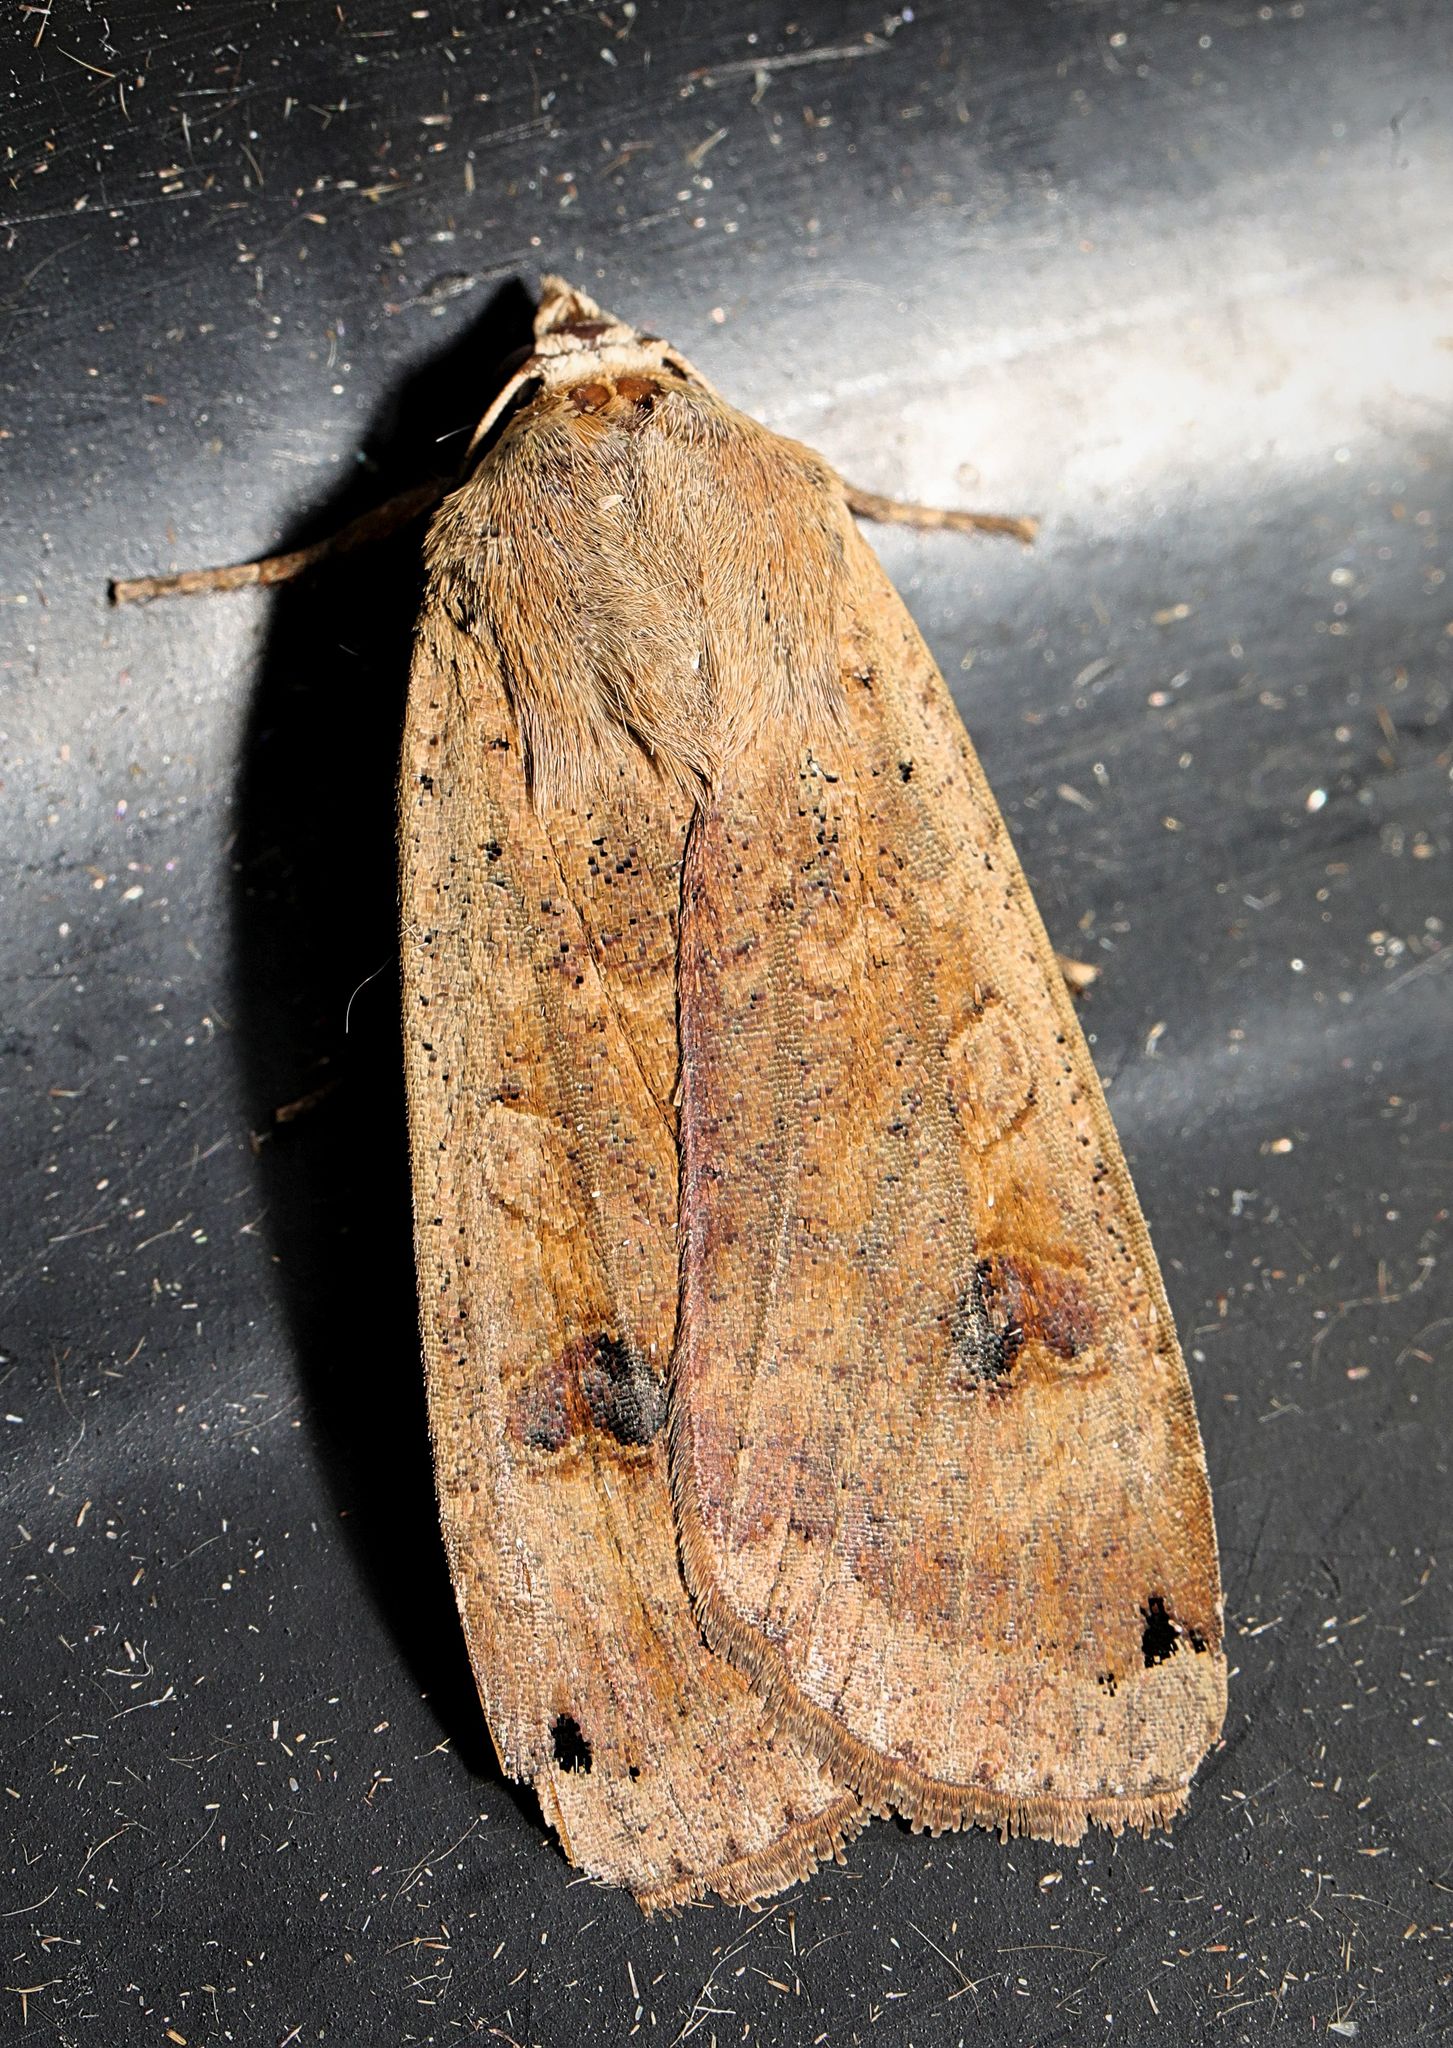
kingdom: Animalia
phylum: Arthropoda
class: Insecta
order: Lepidoptera
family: Noctuidae
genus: Noctua
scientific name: Noctua pronuba
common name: Large yellow underwing
